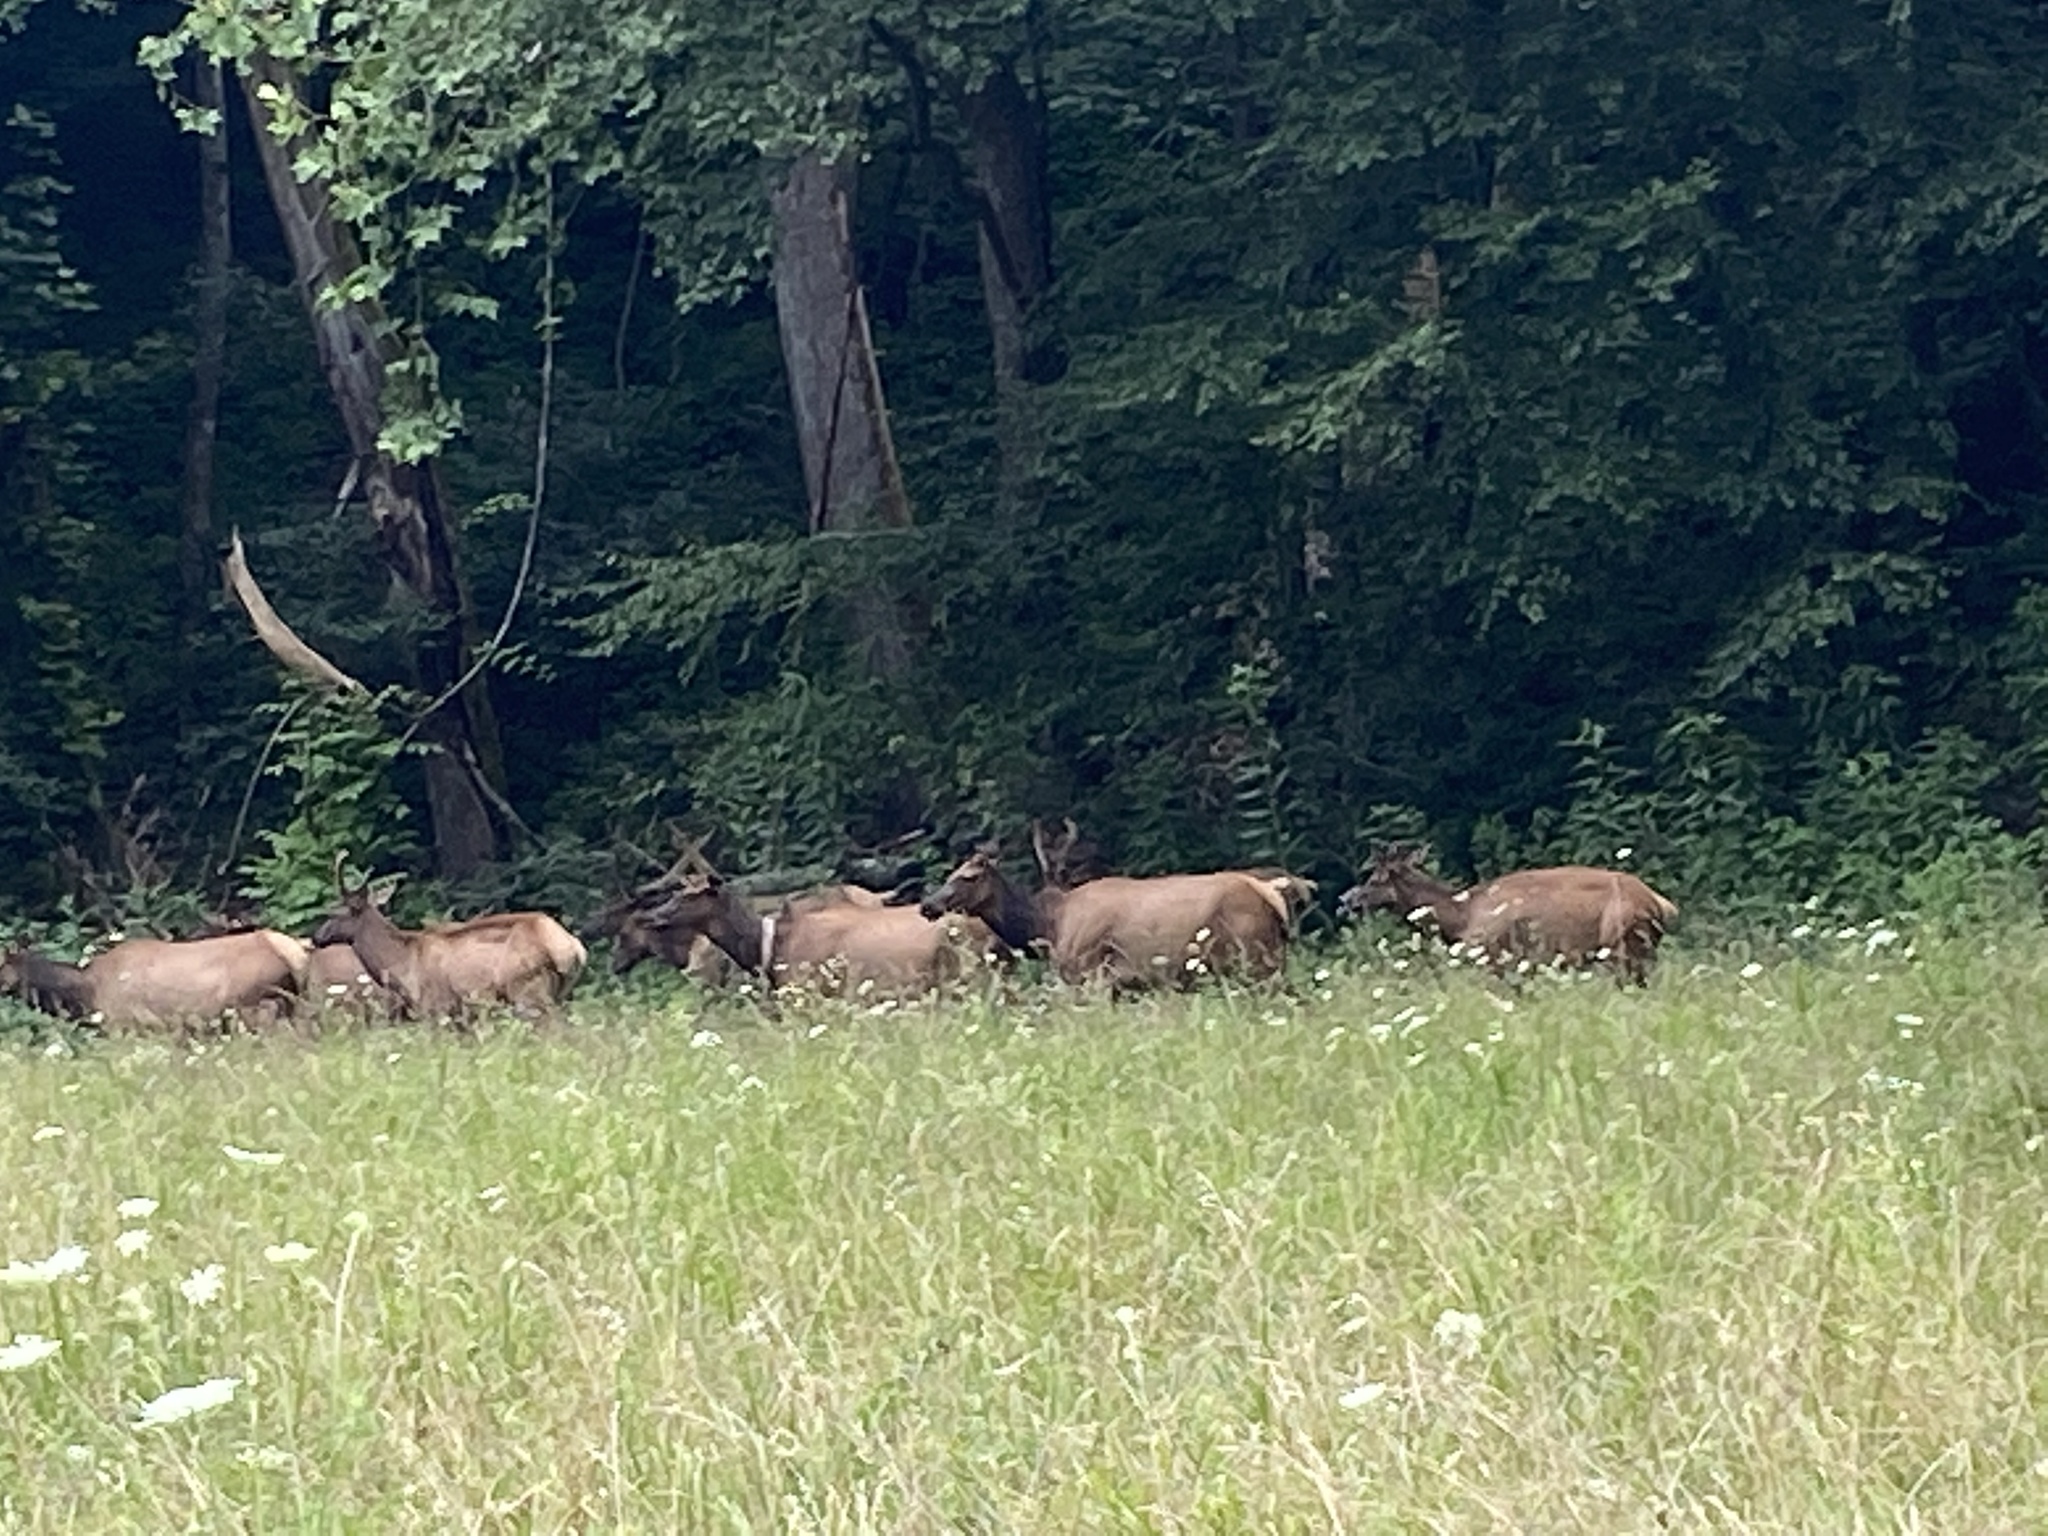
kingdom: Animalia
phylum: Chordata
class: Mammalia
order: Artiodactyla
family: Cervidae
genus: Cervus
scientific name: Cervus elaphus
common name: Red deer
